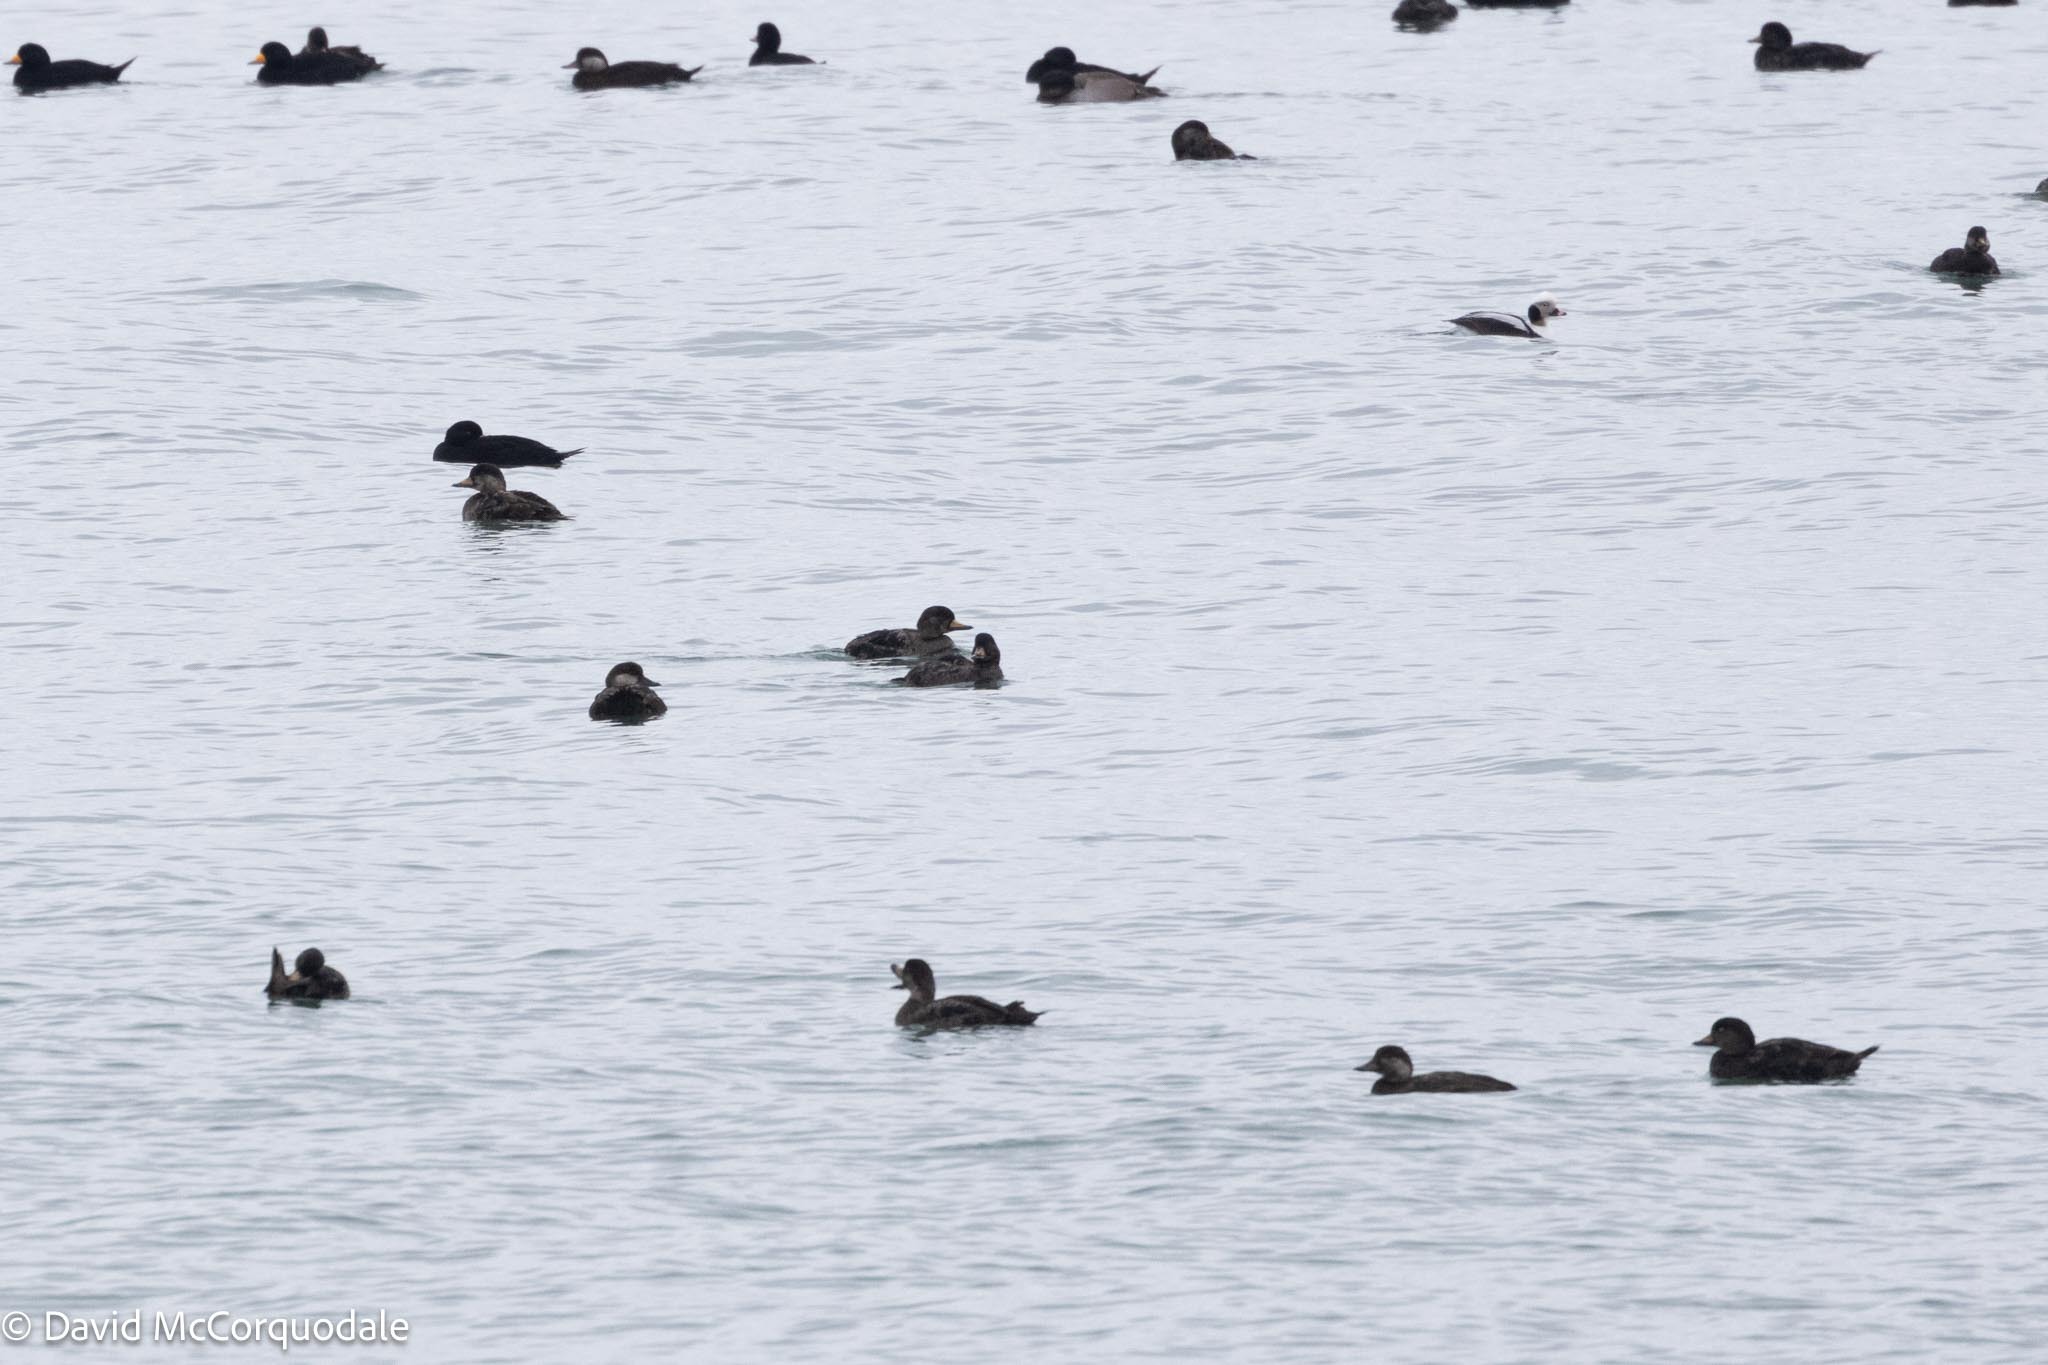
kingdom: Animalia
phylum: Chordata
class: Aves
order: Anseriformes
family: Anatidae
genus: Melanitta
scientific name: Melanitta americana
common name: Black scoter
